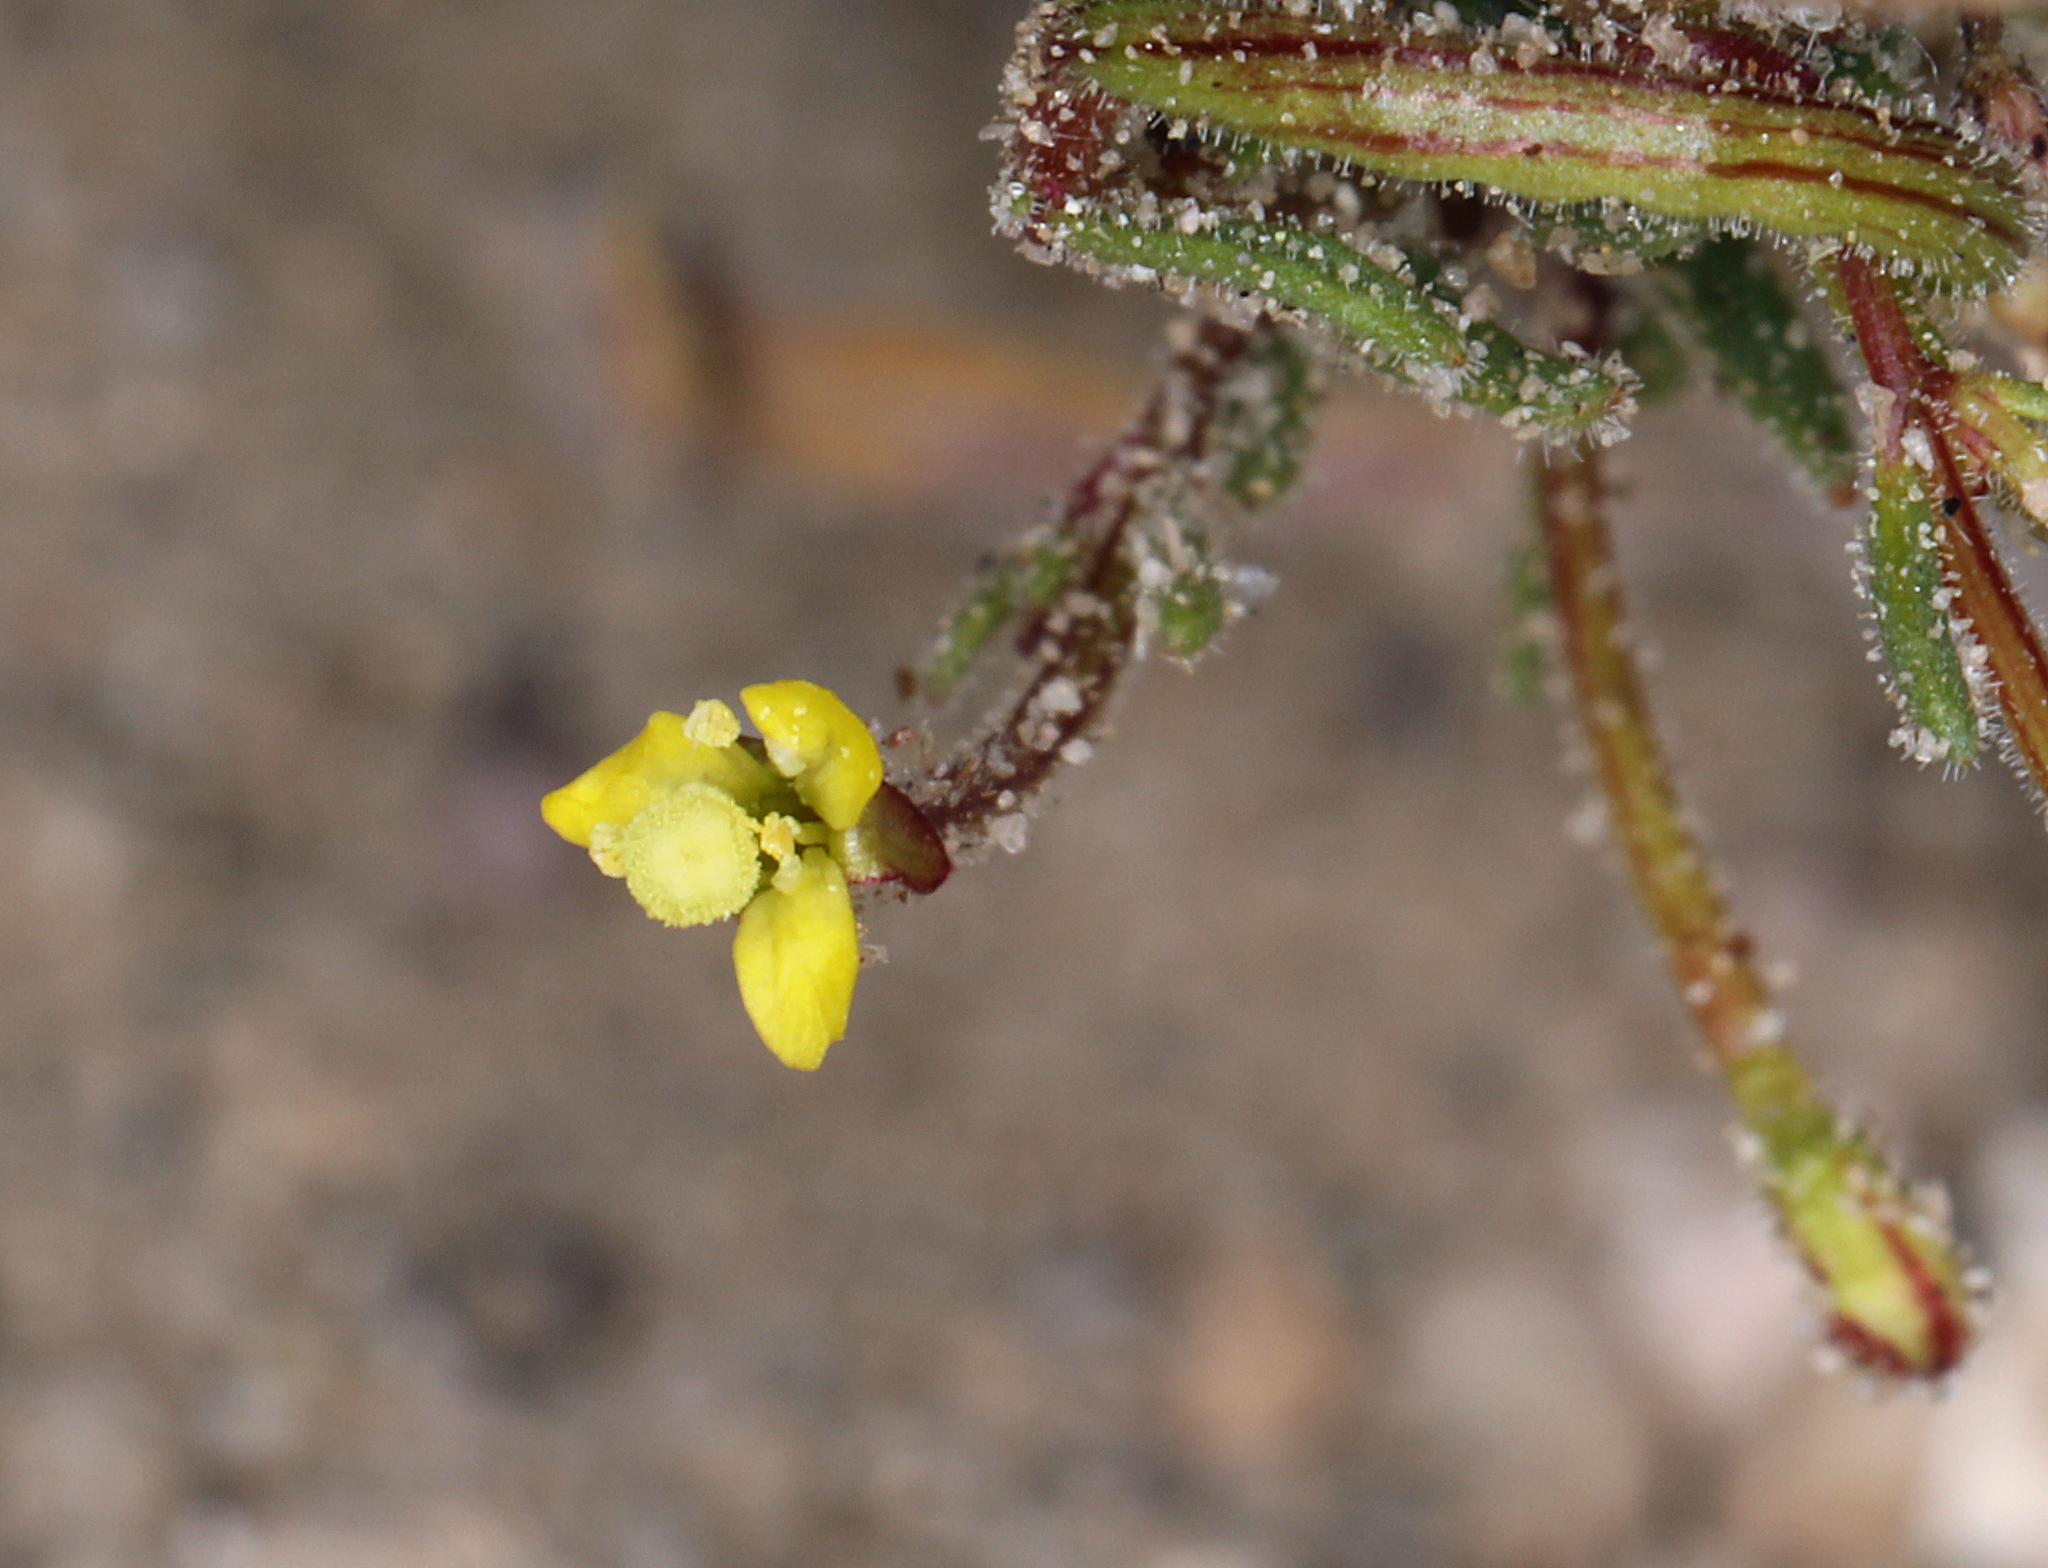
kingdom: Plantae
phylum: Tracheophyta
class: Magnoliopsida
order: Myrtales
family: Onagraceae
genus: Camissonia
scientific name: Camissonia pusilla
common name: Obscure camissonia
